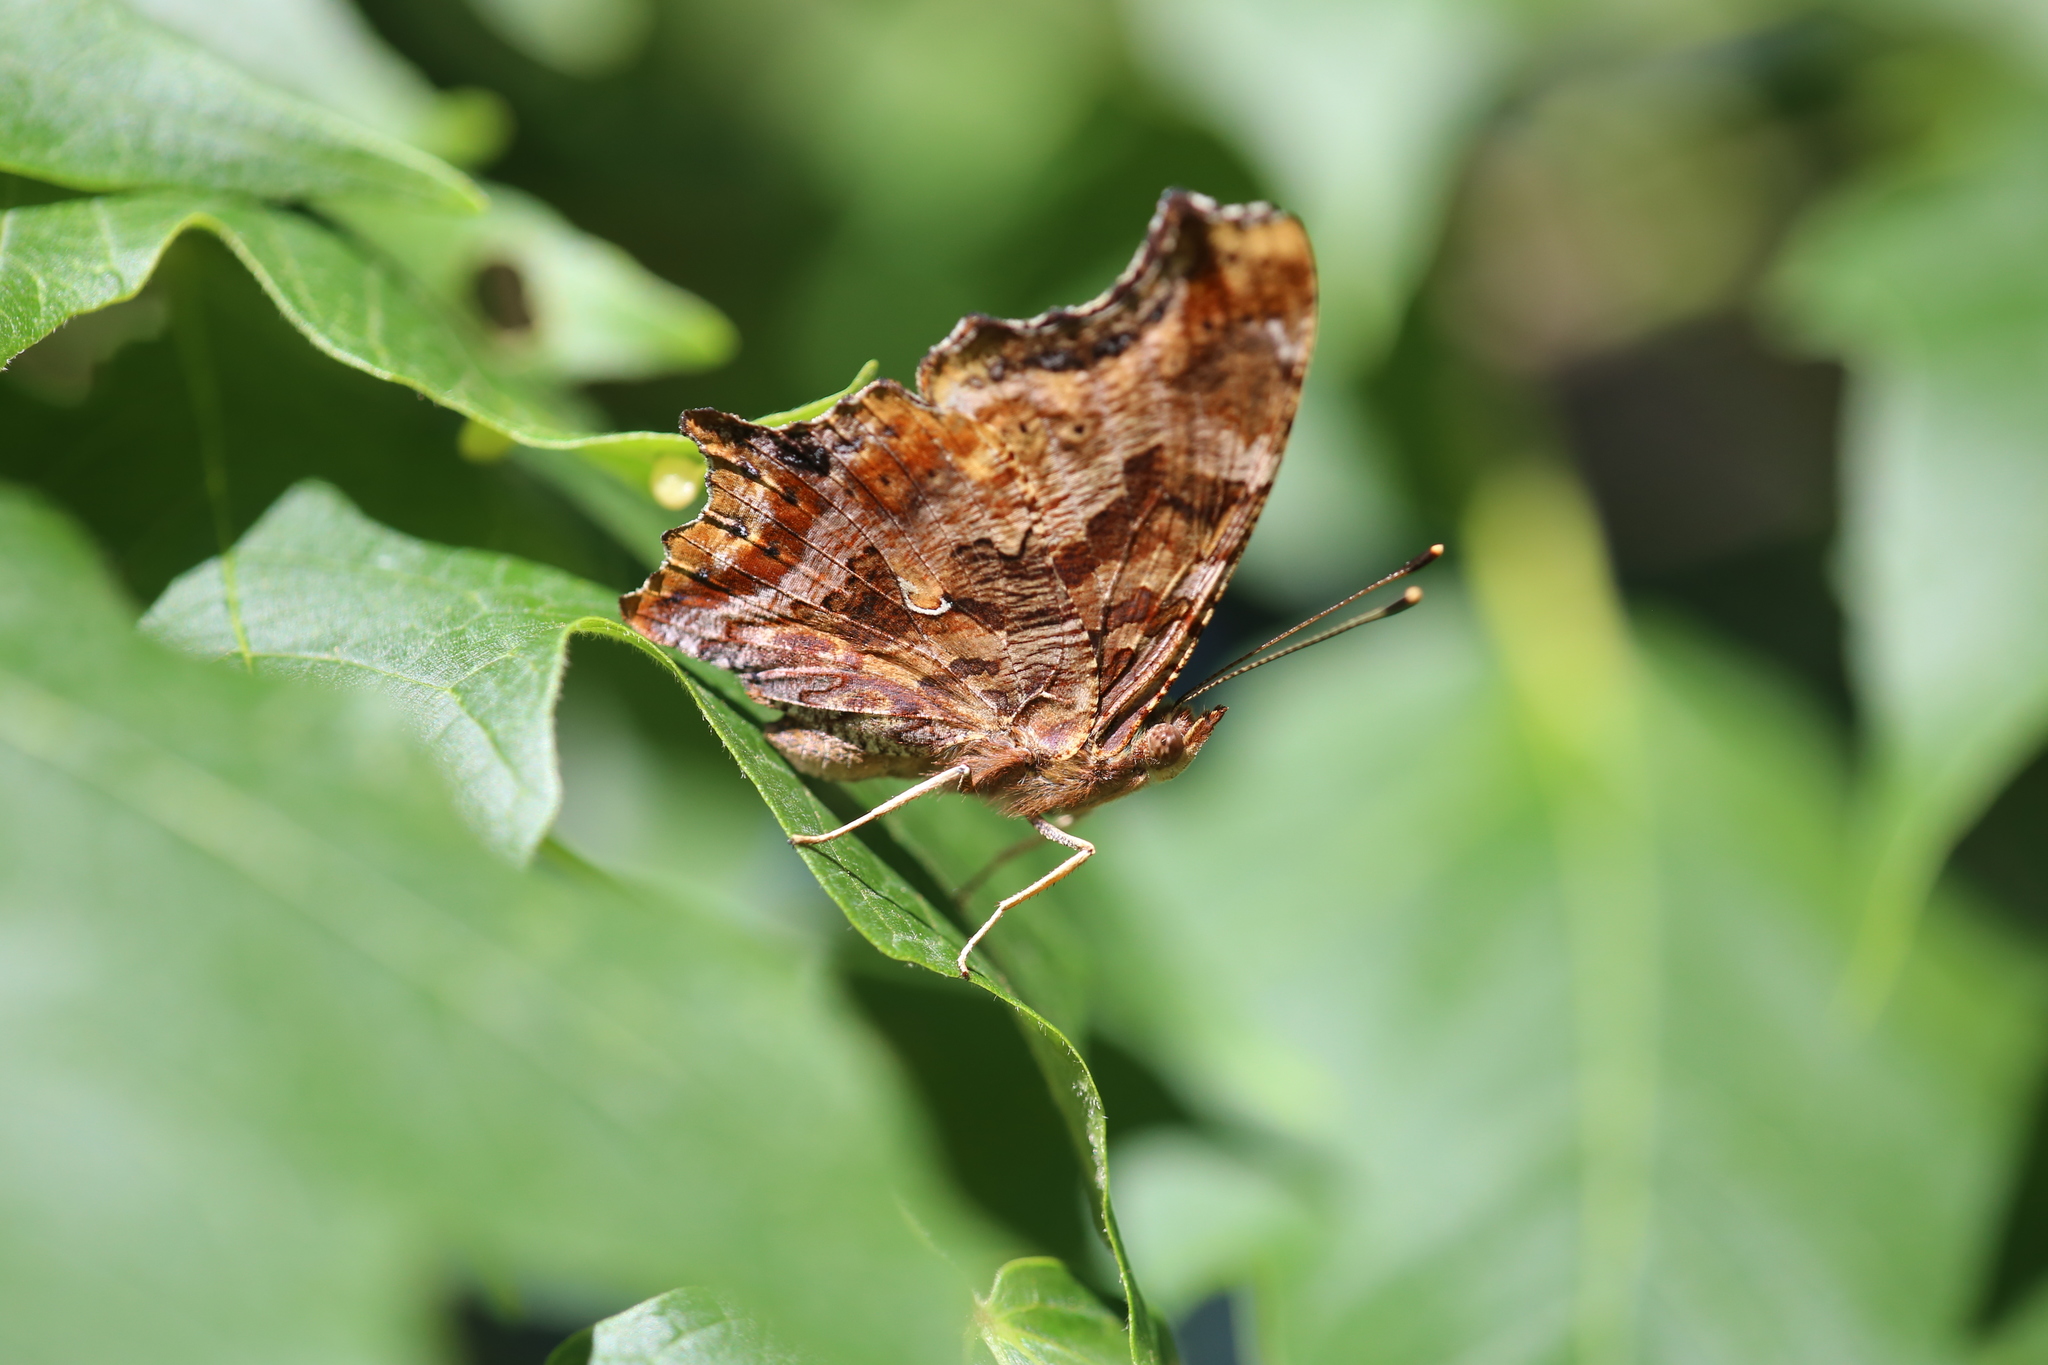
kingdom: Animalia
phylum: Arthropoda
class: Insecta
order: Lepidoptera
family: Nymphalidae
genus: Polygonia
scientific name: Polygonia comma
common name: Eastern comma
